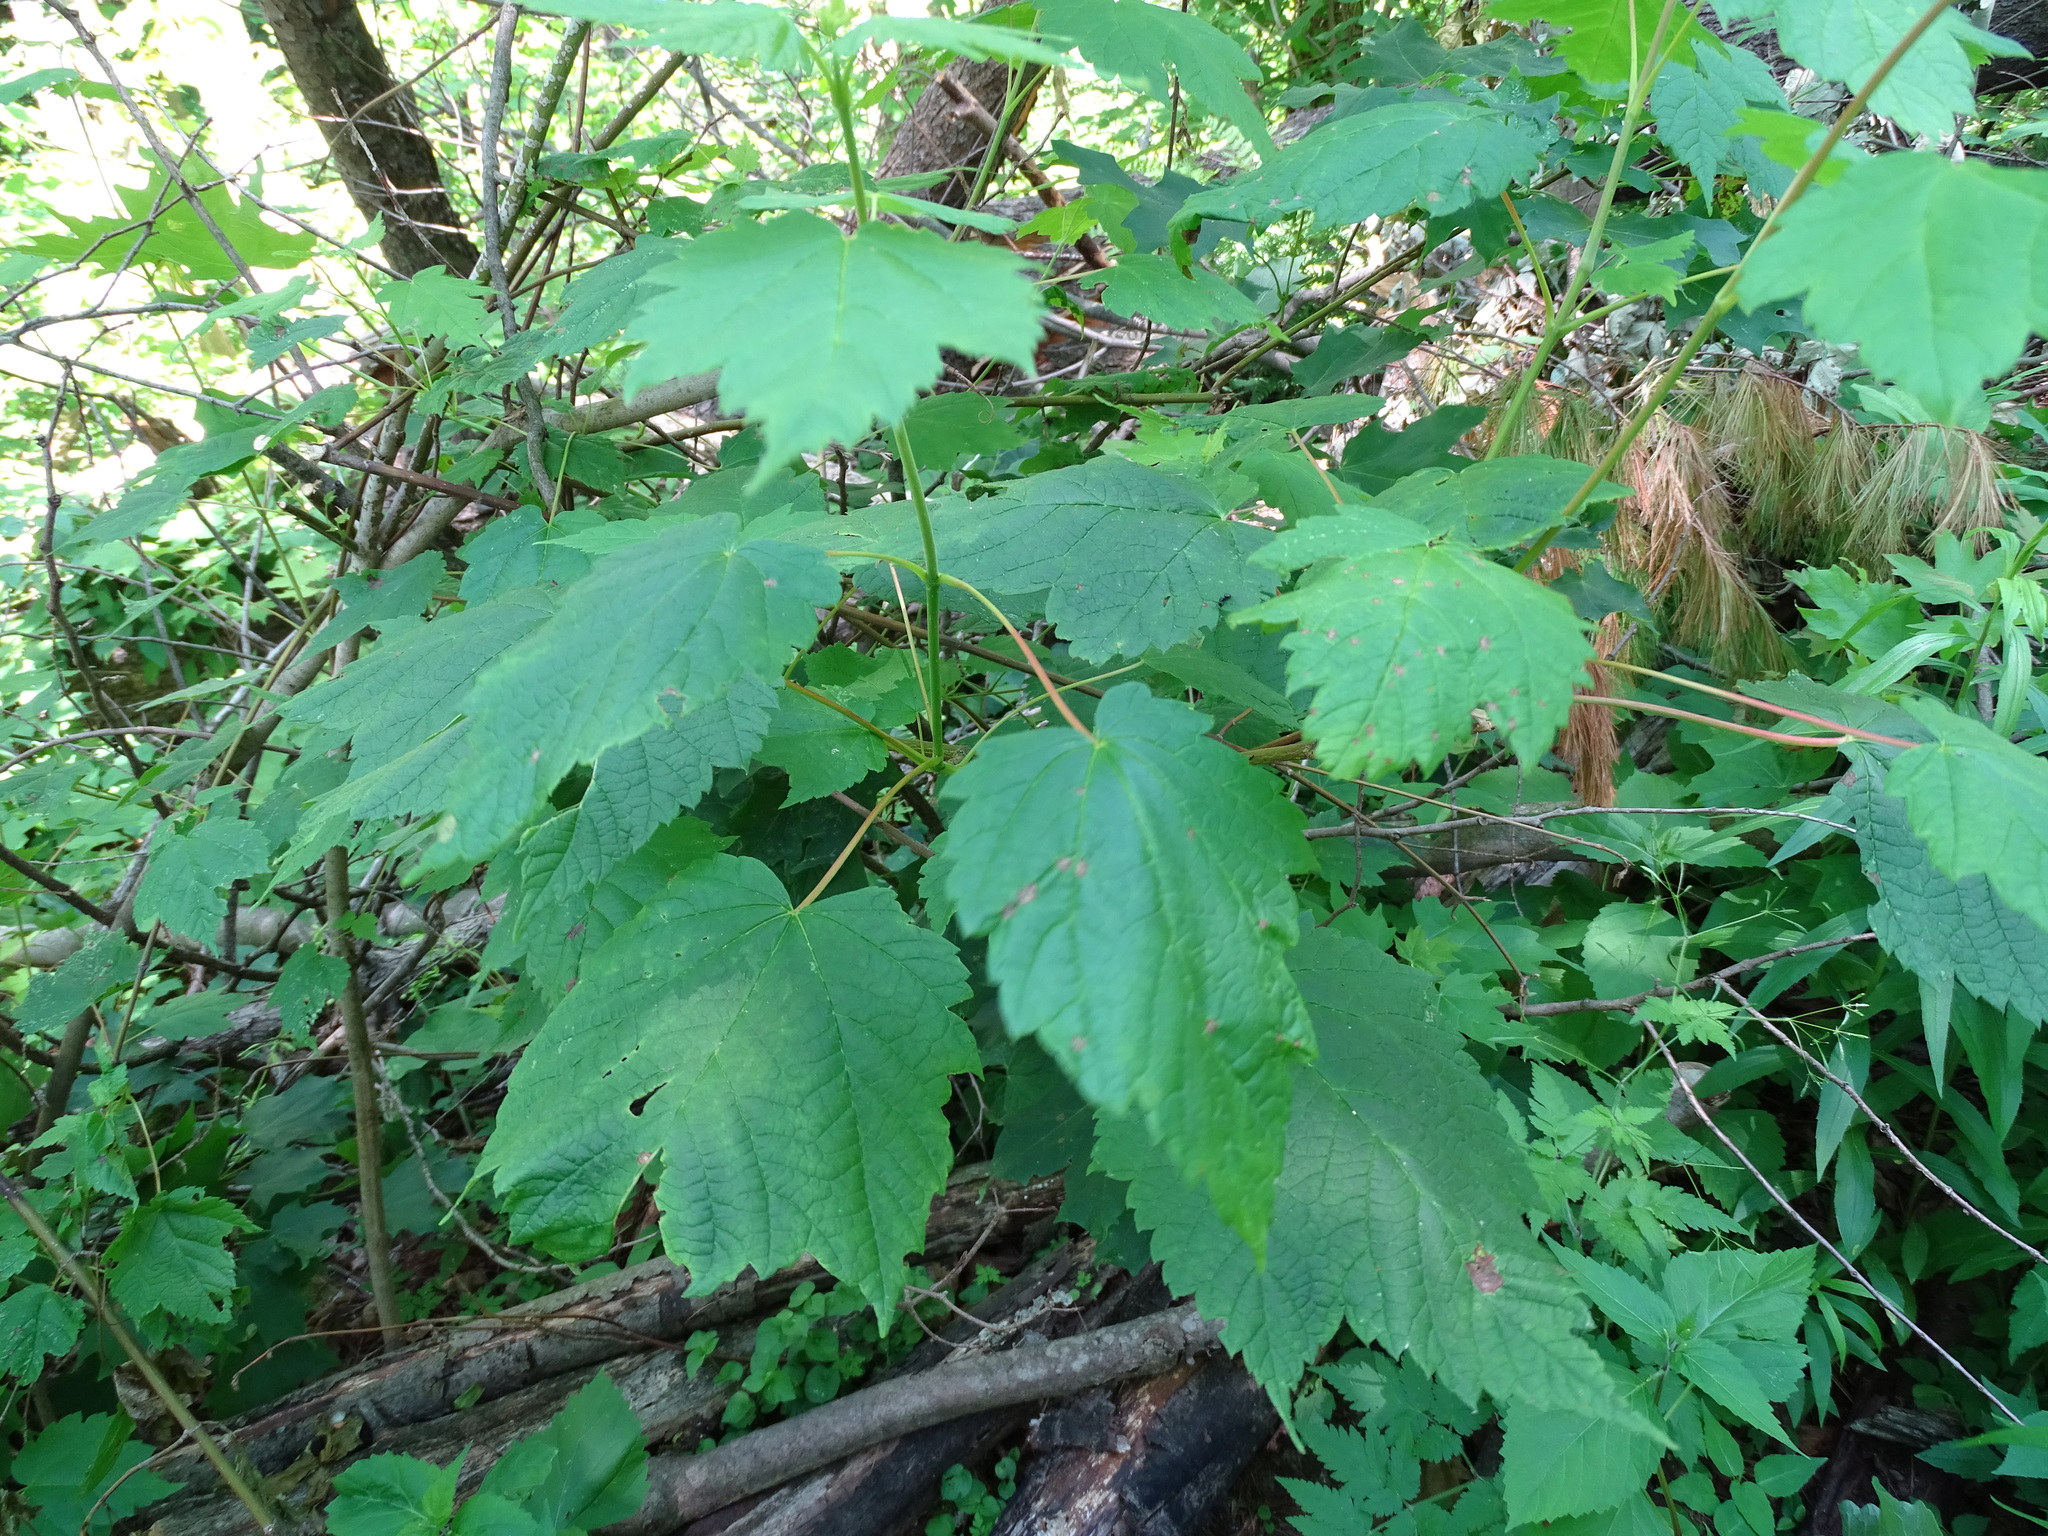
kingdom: Plantae
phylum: Tracheophyta
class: Magnoliopsida
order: Sapindales
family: Sapindaceae
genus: Acer
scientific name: Acer spicatum
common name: Mountain maple
